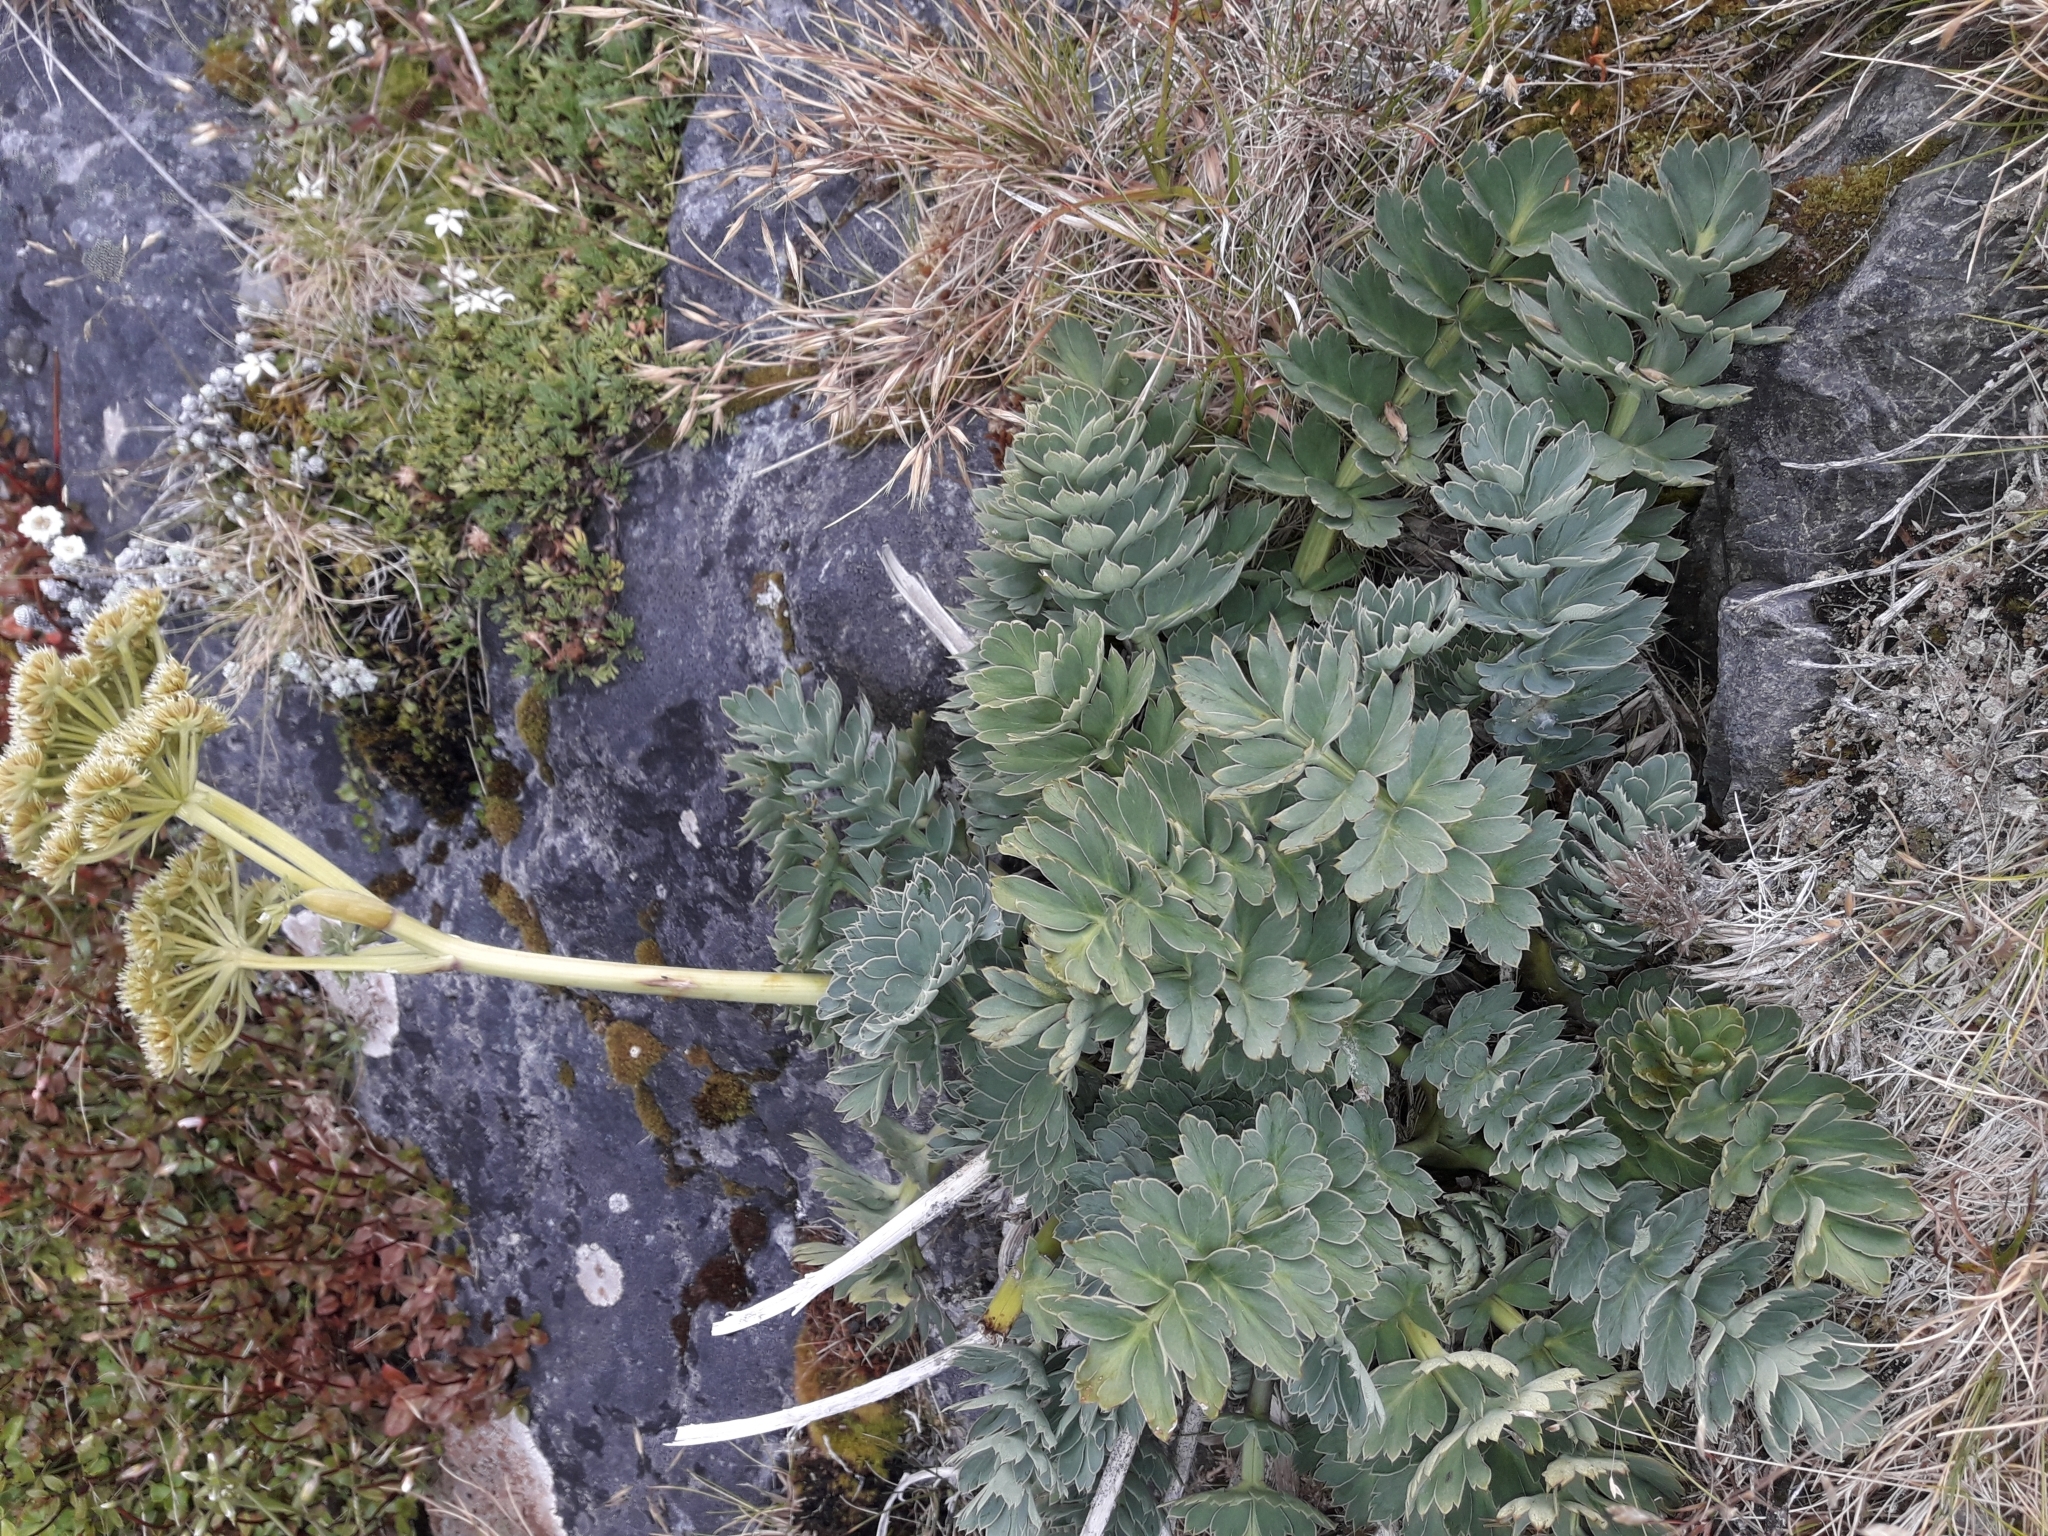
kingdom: Plantae
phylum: Tracheophyta
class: Magnoliopsida
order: Apiales
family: Apiaceae
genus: Anisotome
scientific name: Anisotome pilifera
